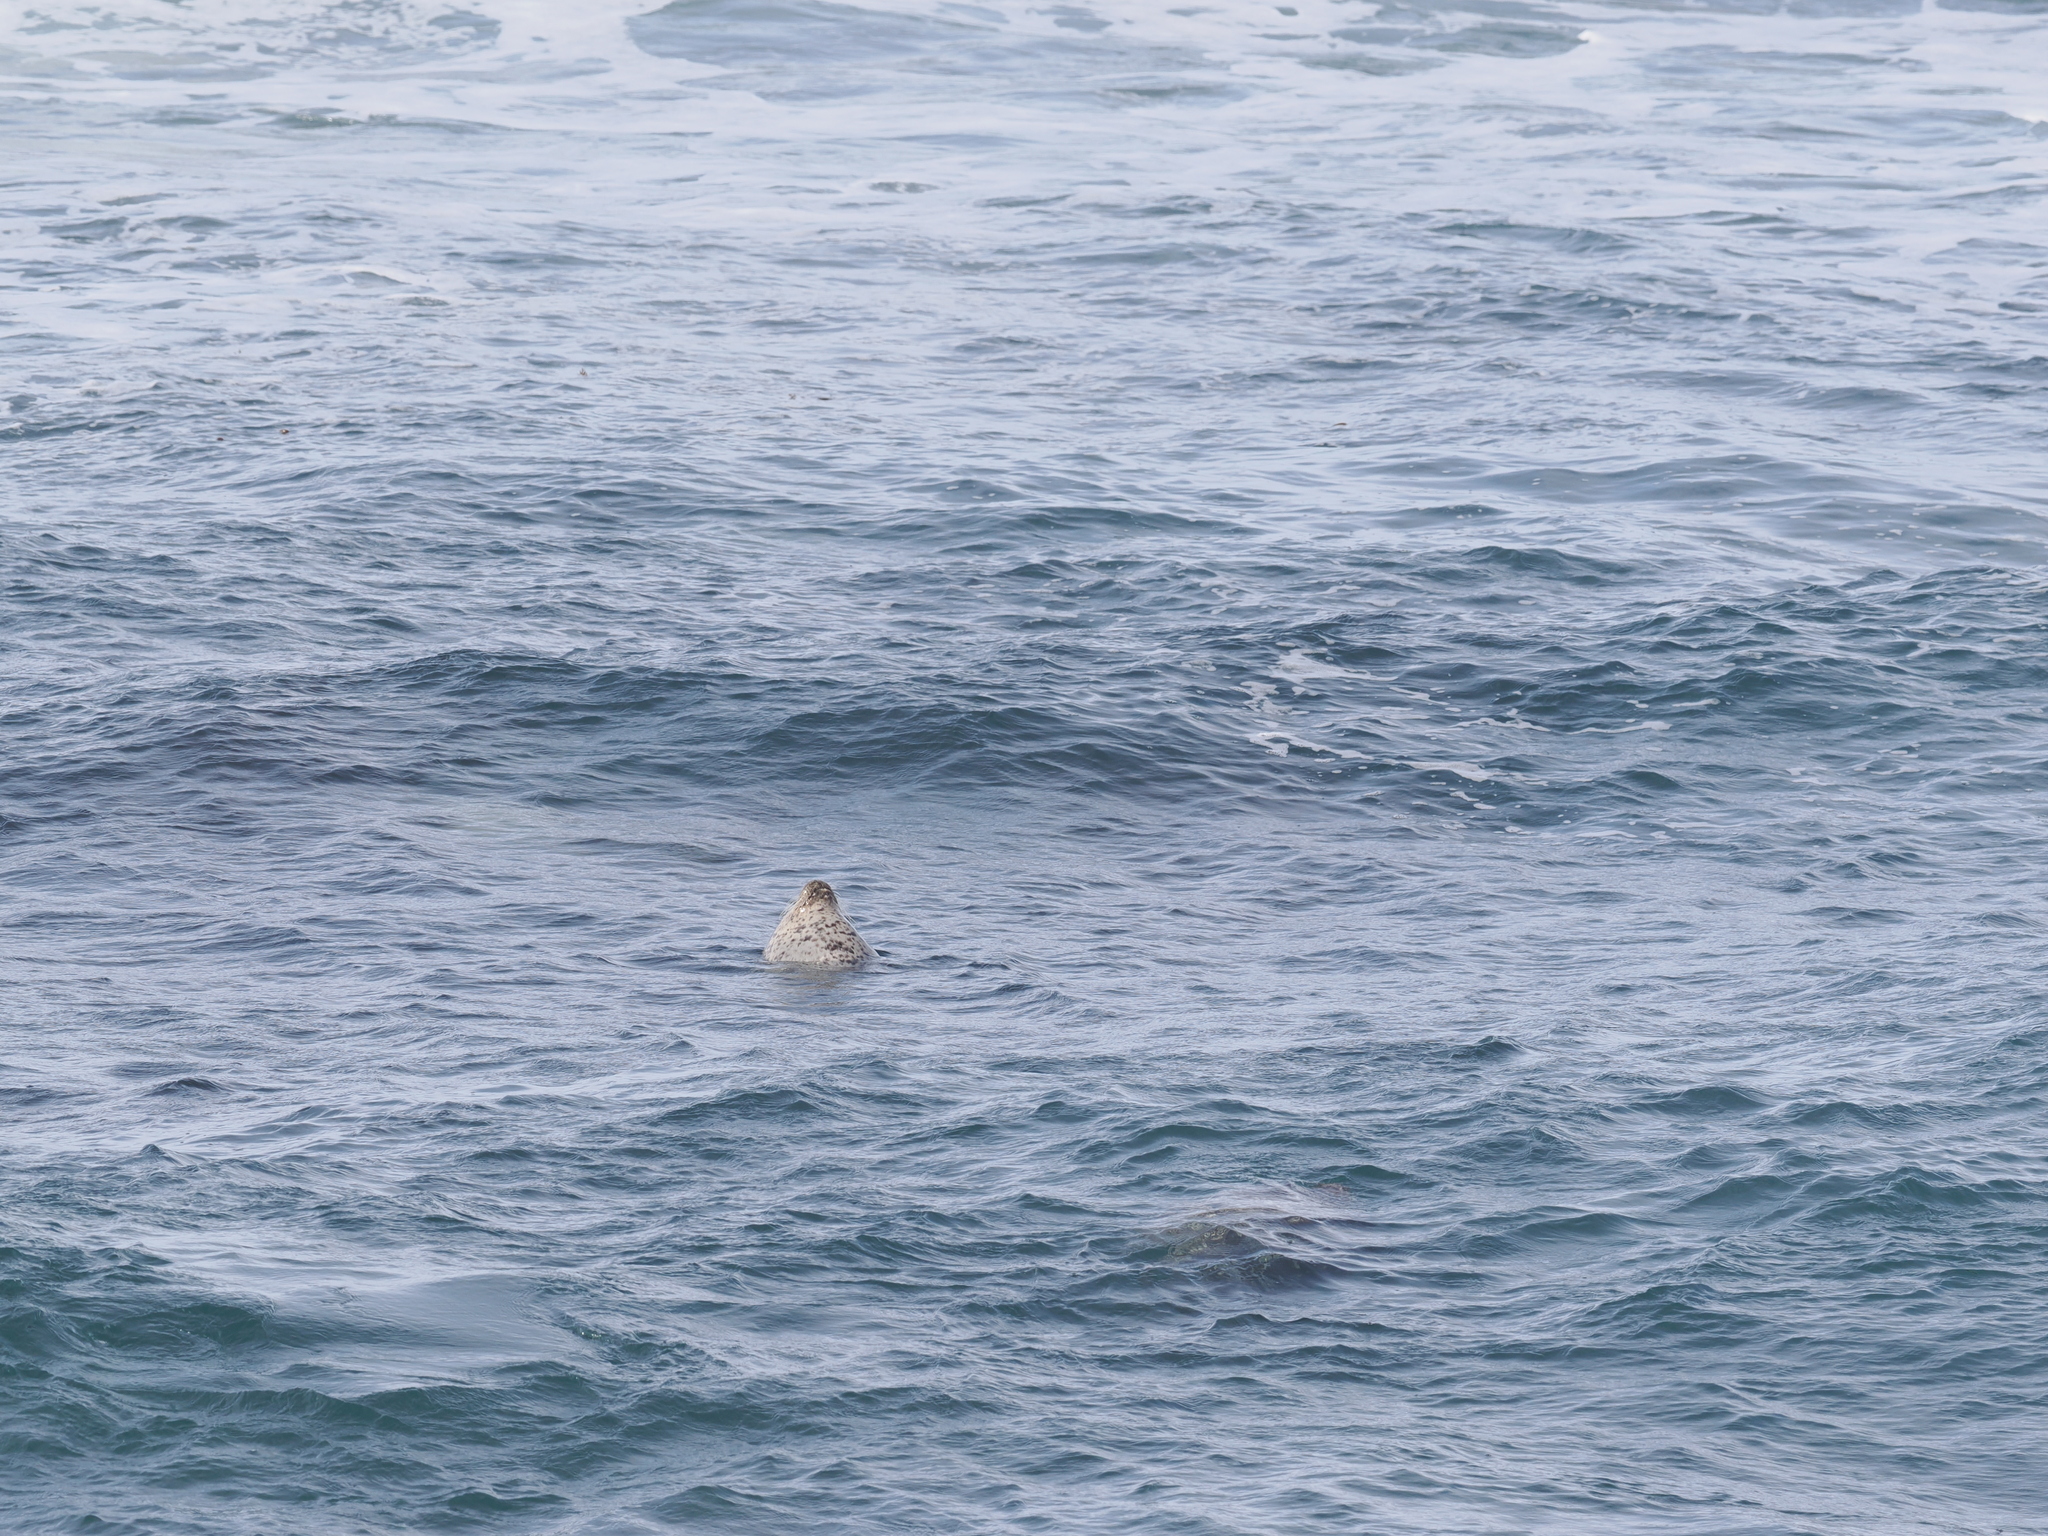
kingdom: Animalia
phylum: Chordata
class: Mammalia
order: Carnivora
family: Phocidae
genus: Phoca
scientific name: Phoca vitulina
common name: Harbor seal
